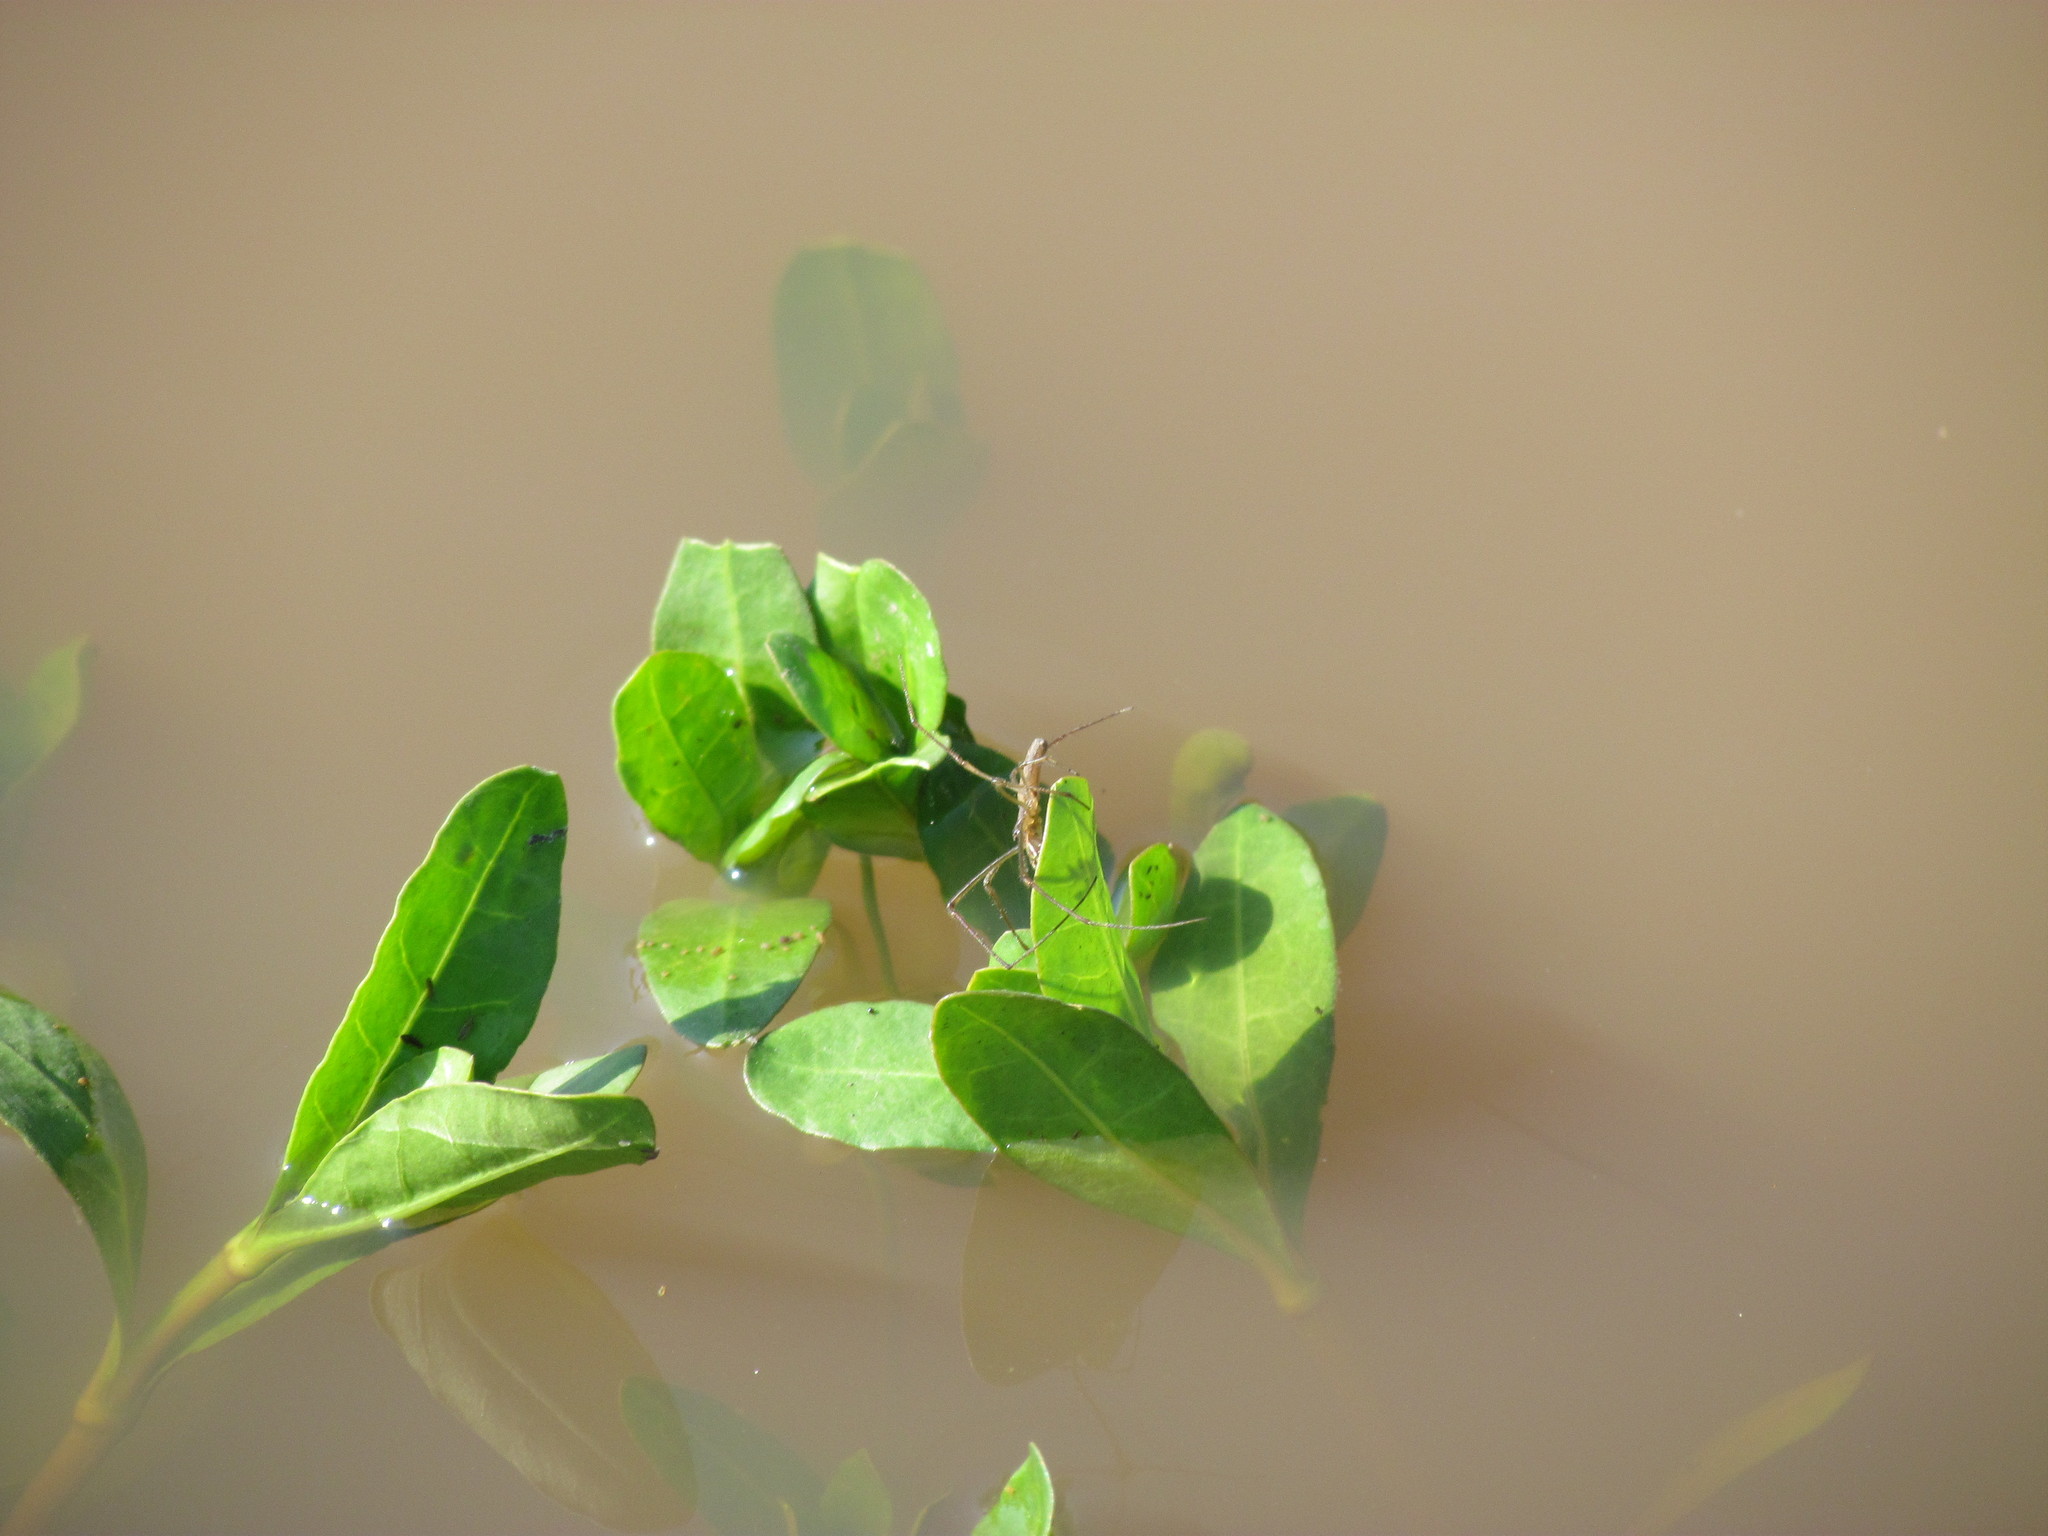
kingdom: Animalia
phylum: Arthropoda
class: Arachnida
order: Araneae
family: Tetragnathidae
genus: Tetragnatha
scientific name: Tetragnatha
